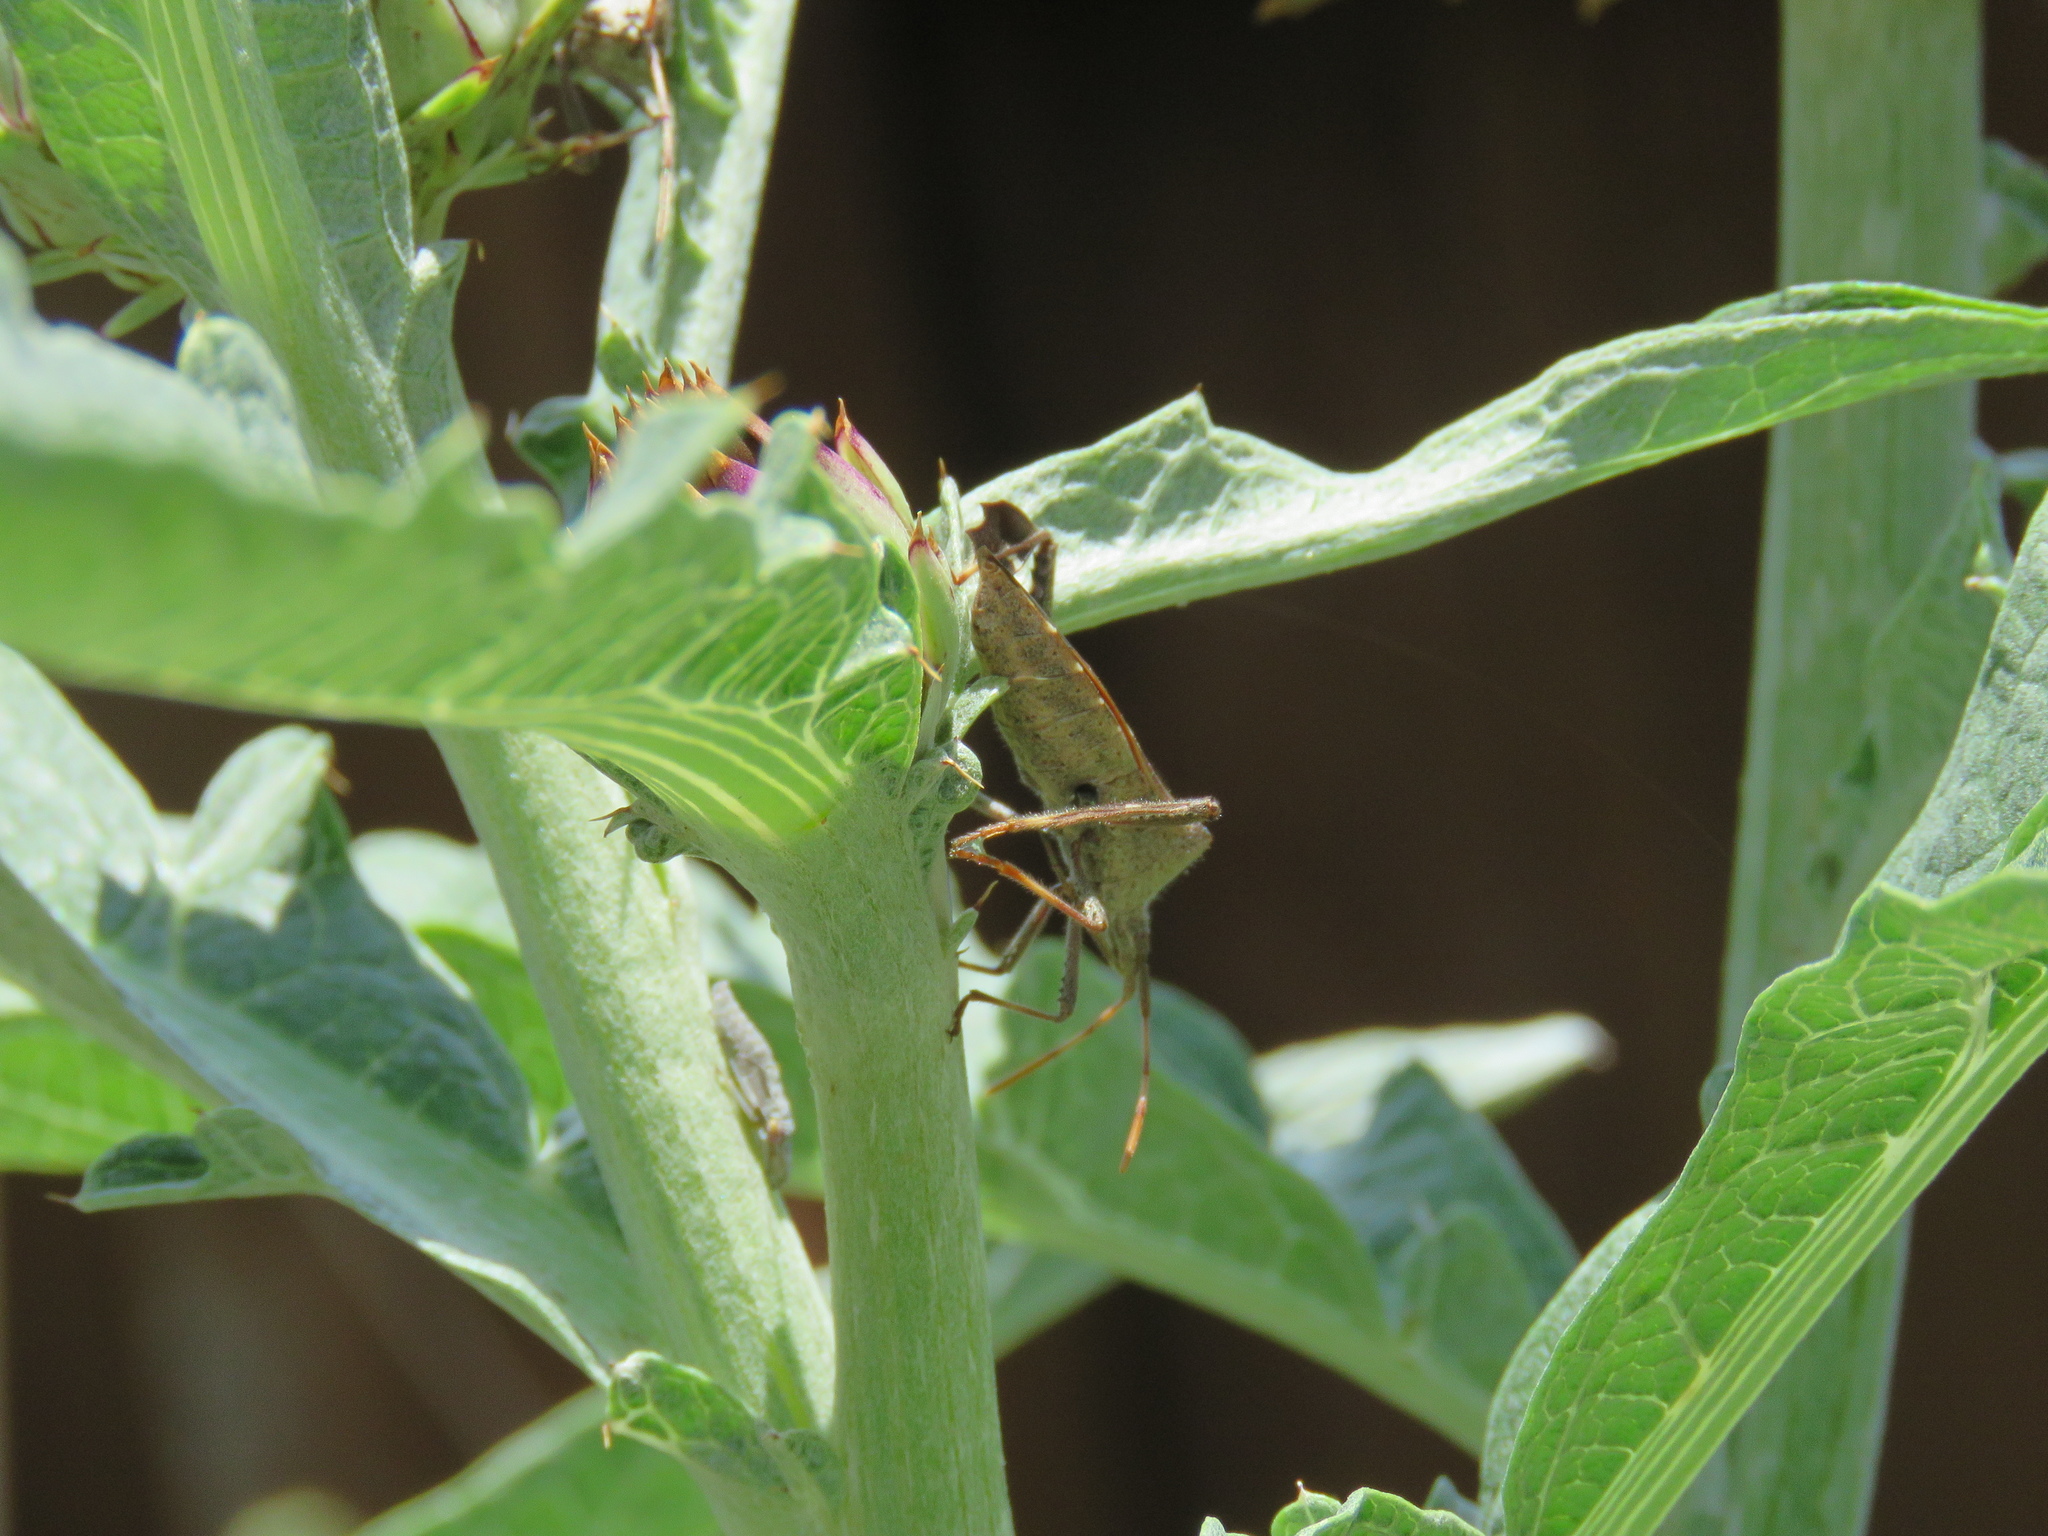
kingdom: Animalia
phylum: Arthropoda
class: Insecta
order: Hemiptera
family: Coreidae
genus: Leptoglossus
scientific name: Leptoglossus phyllopus
